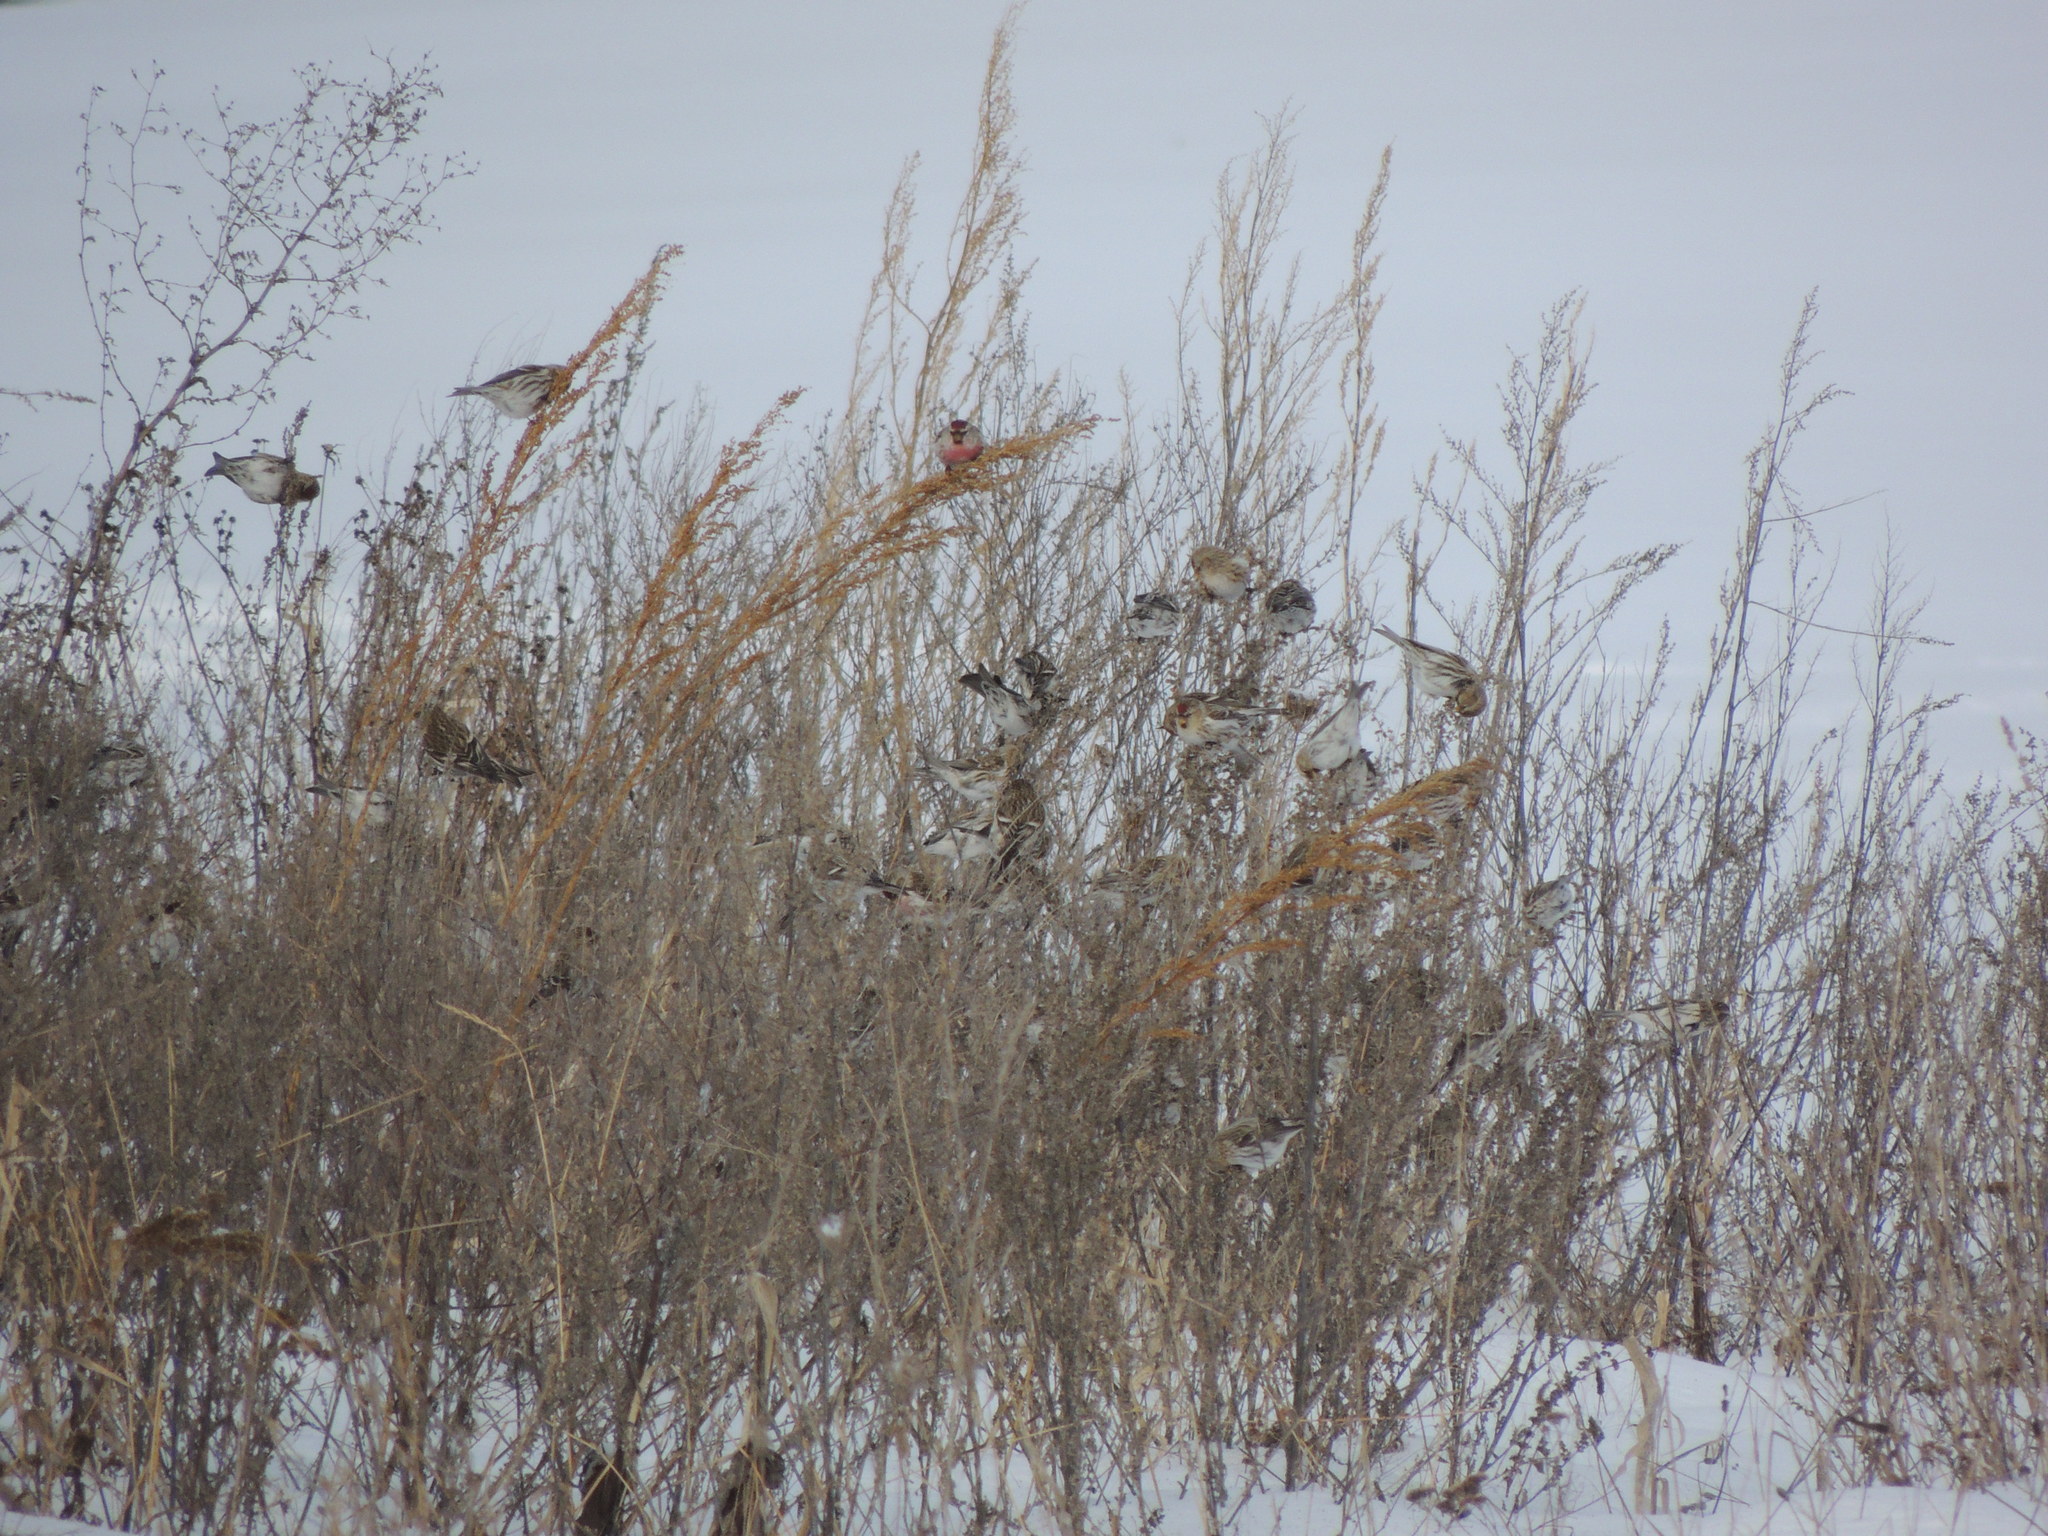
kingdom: Animalia
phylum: Chordata
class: Aves
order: Passeriformes
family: Fringillidae
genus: Acanthis
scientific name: Acanthis flammea
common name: Common redpoll
